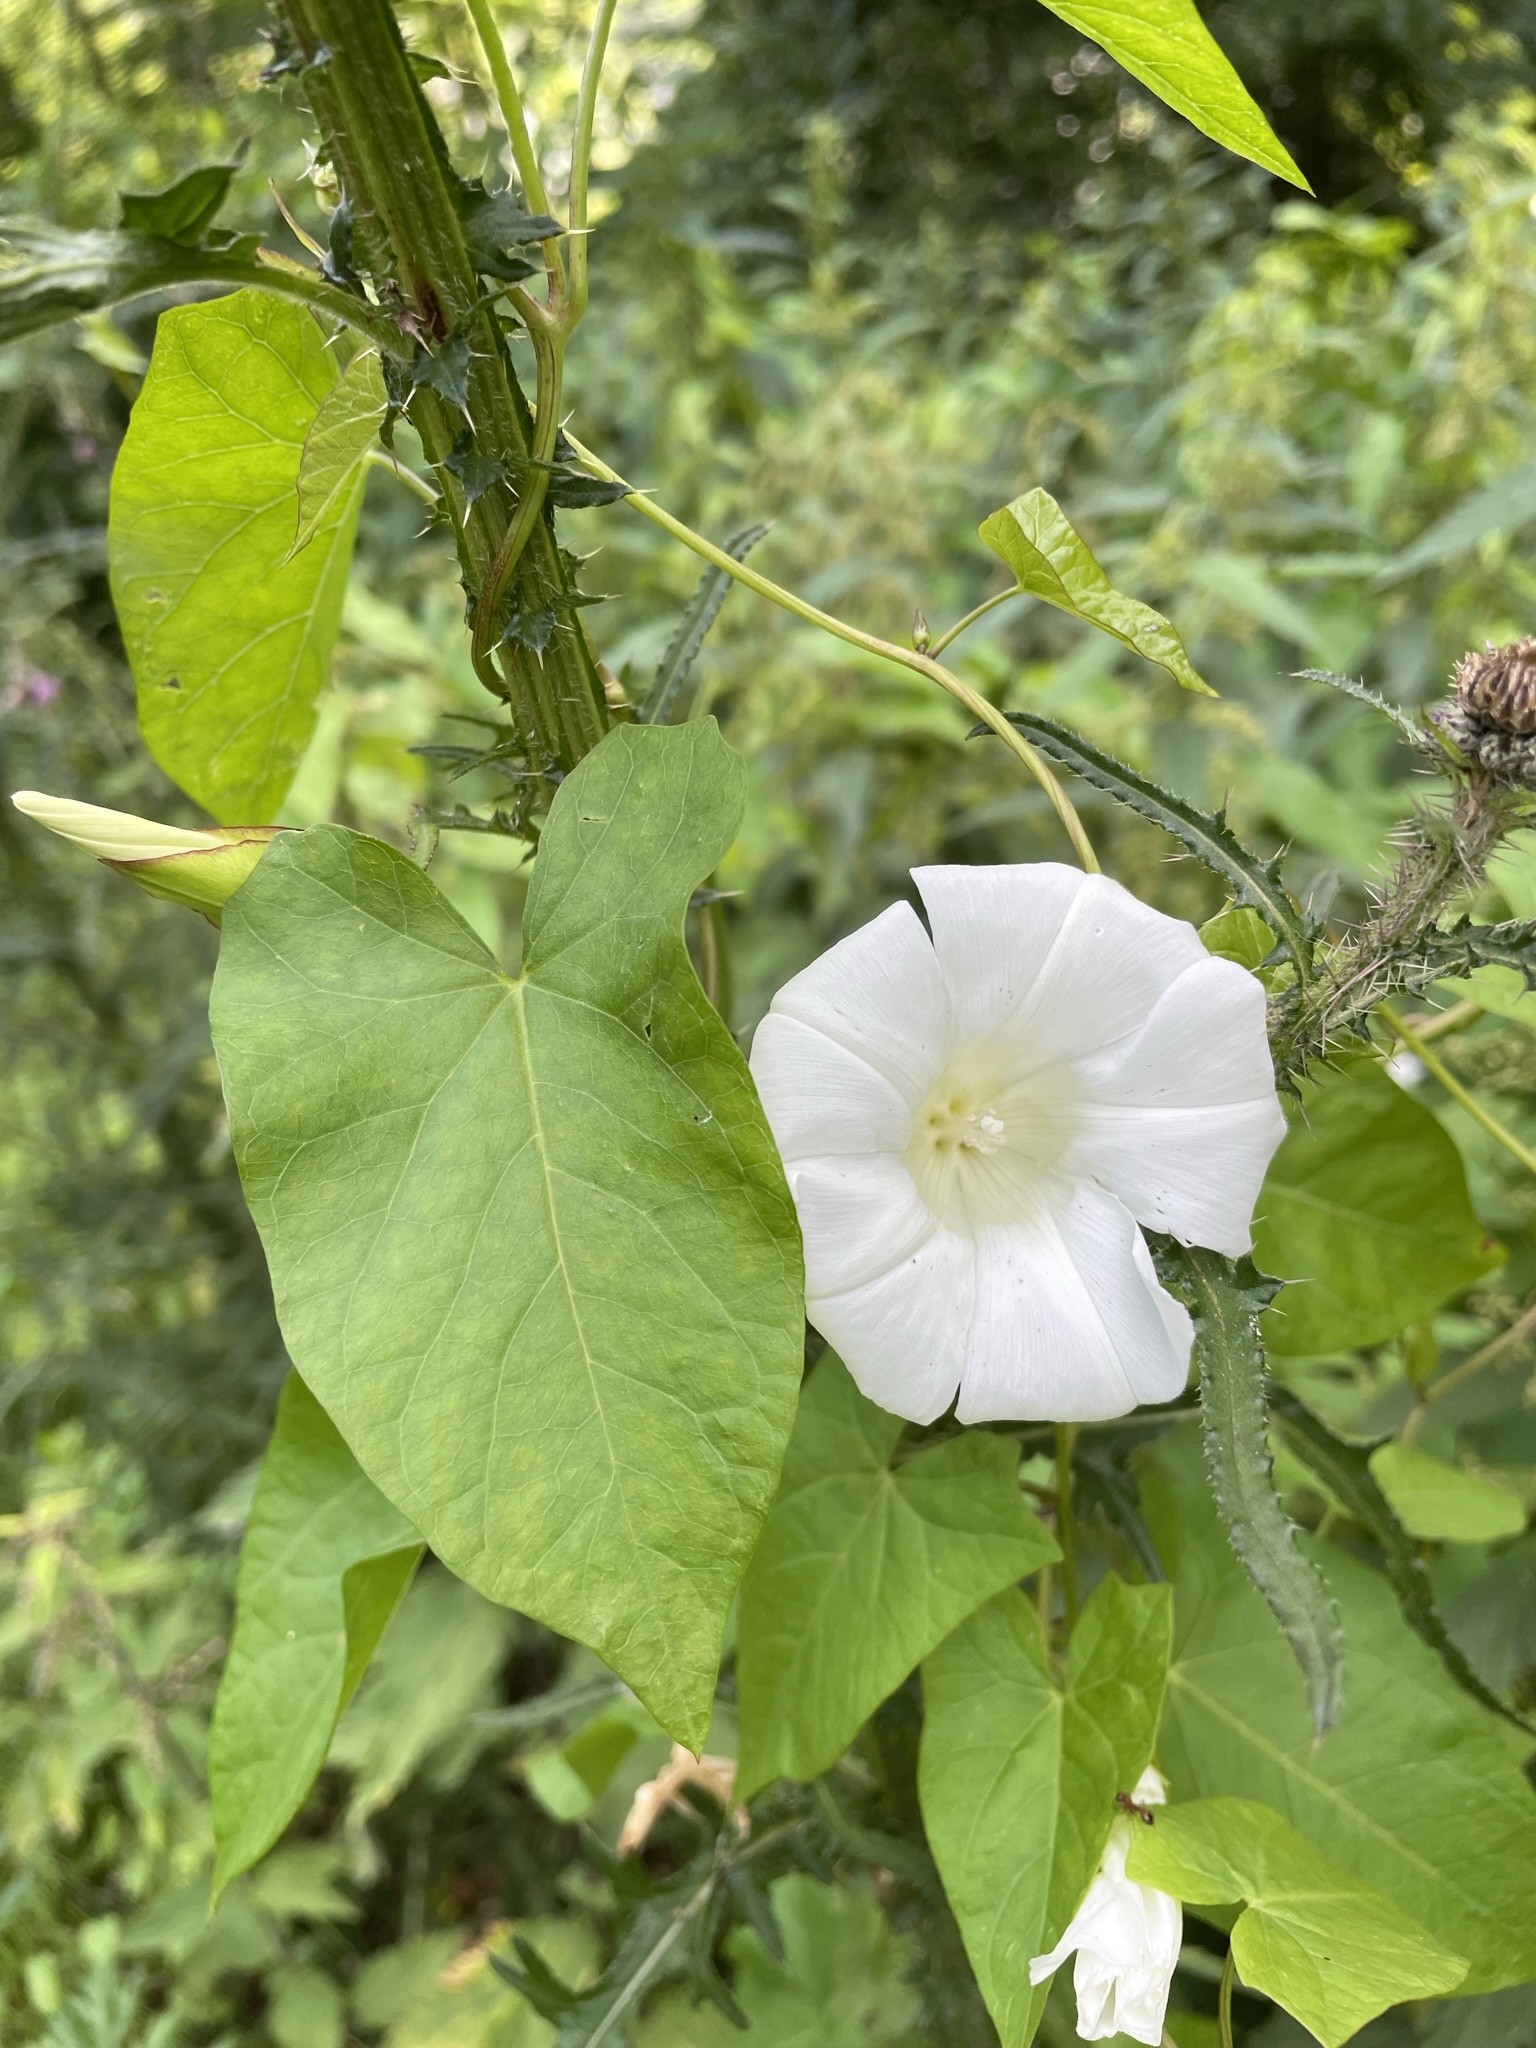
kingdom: Plantae
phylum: Tracheophyta
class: Magnoliopsida
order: Solanales
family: Convolvulaceae
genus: Calystegia
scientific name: Calystegia sepium
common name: Hedge bindweed
